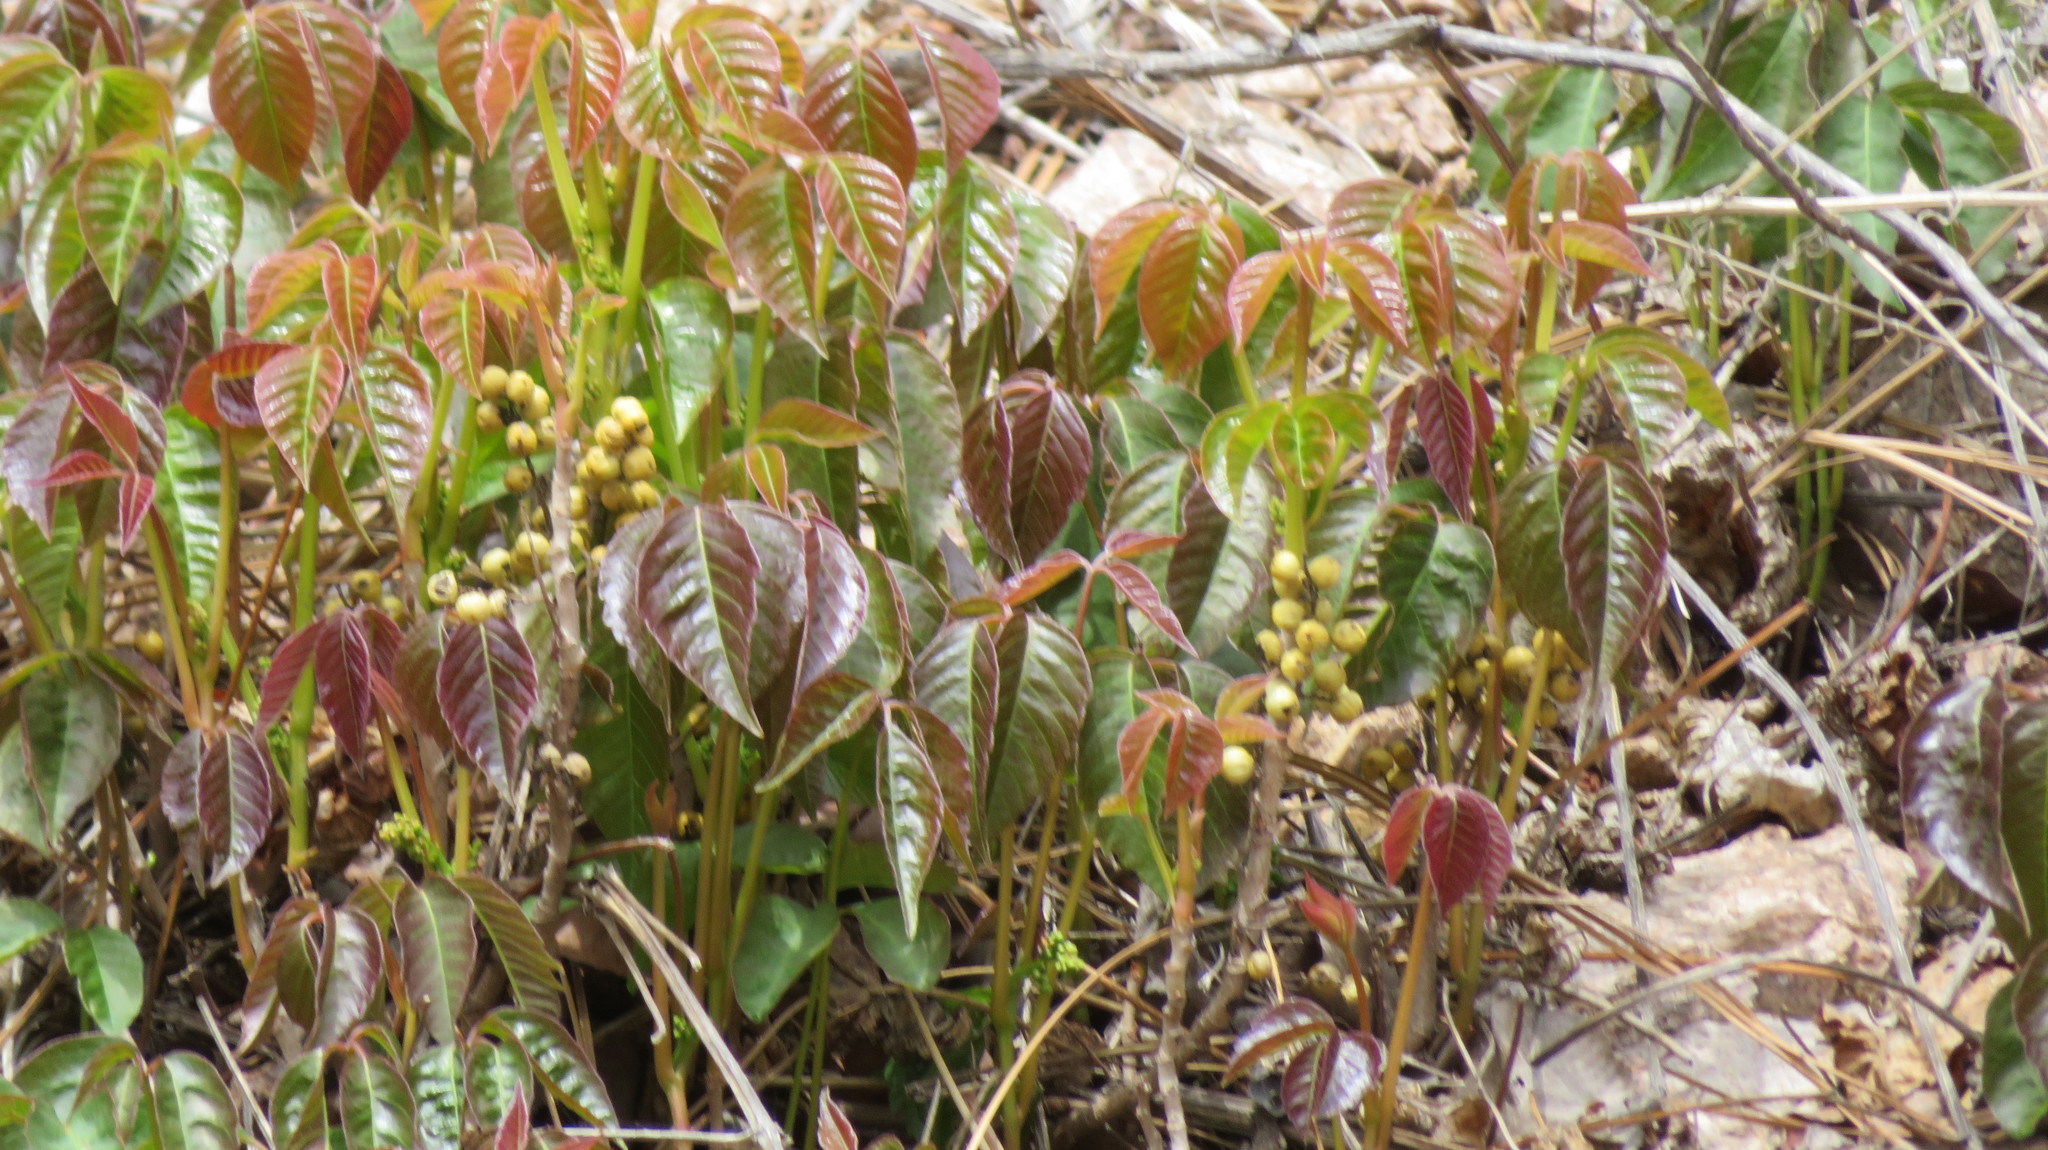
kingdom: Plantae
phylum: Tracheophyta
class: Magnoliopsida
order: Sapindales
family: Anacardiaceae
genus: Toxicodendron
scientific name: Toxicodendron rydbergii
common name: Rydberg's poison-ivy
